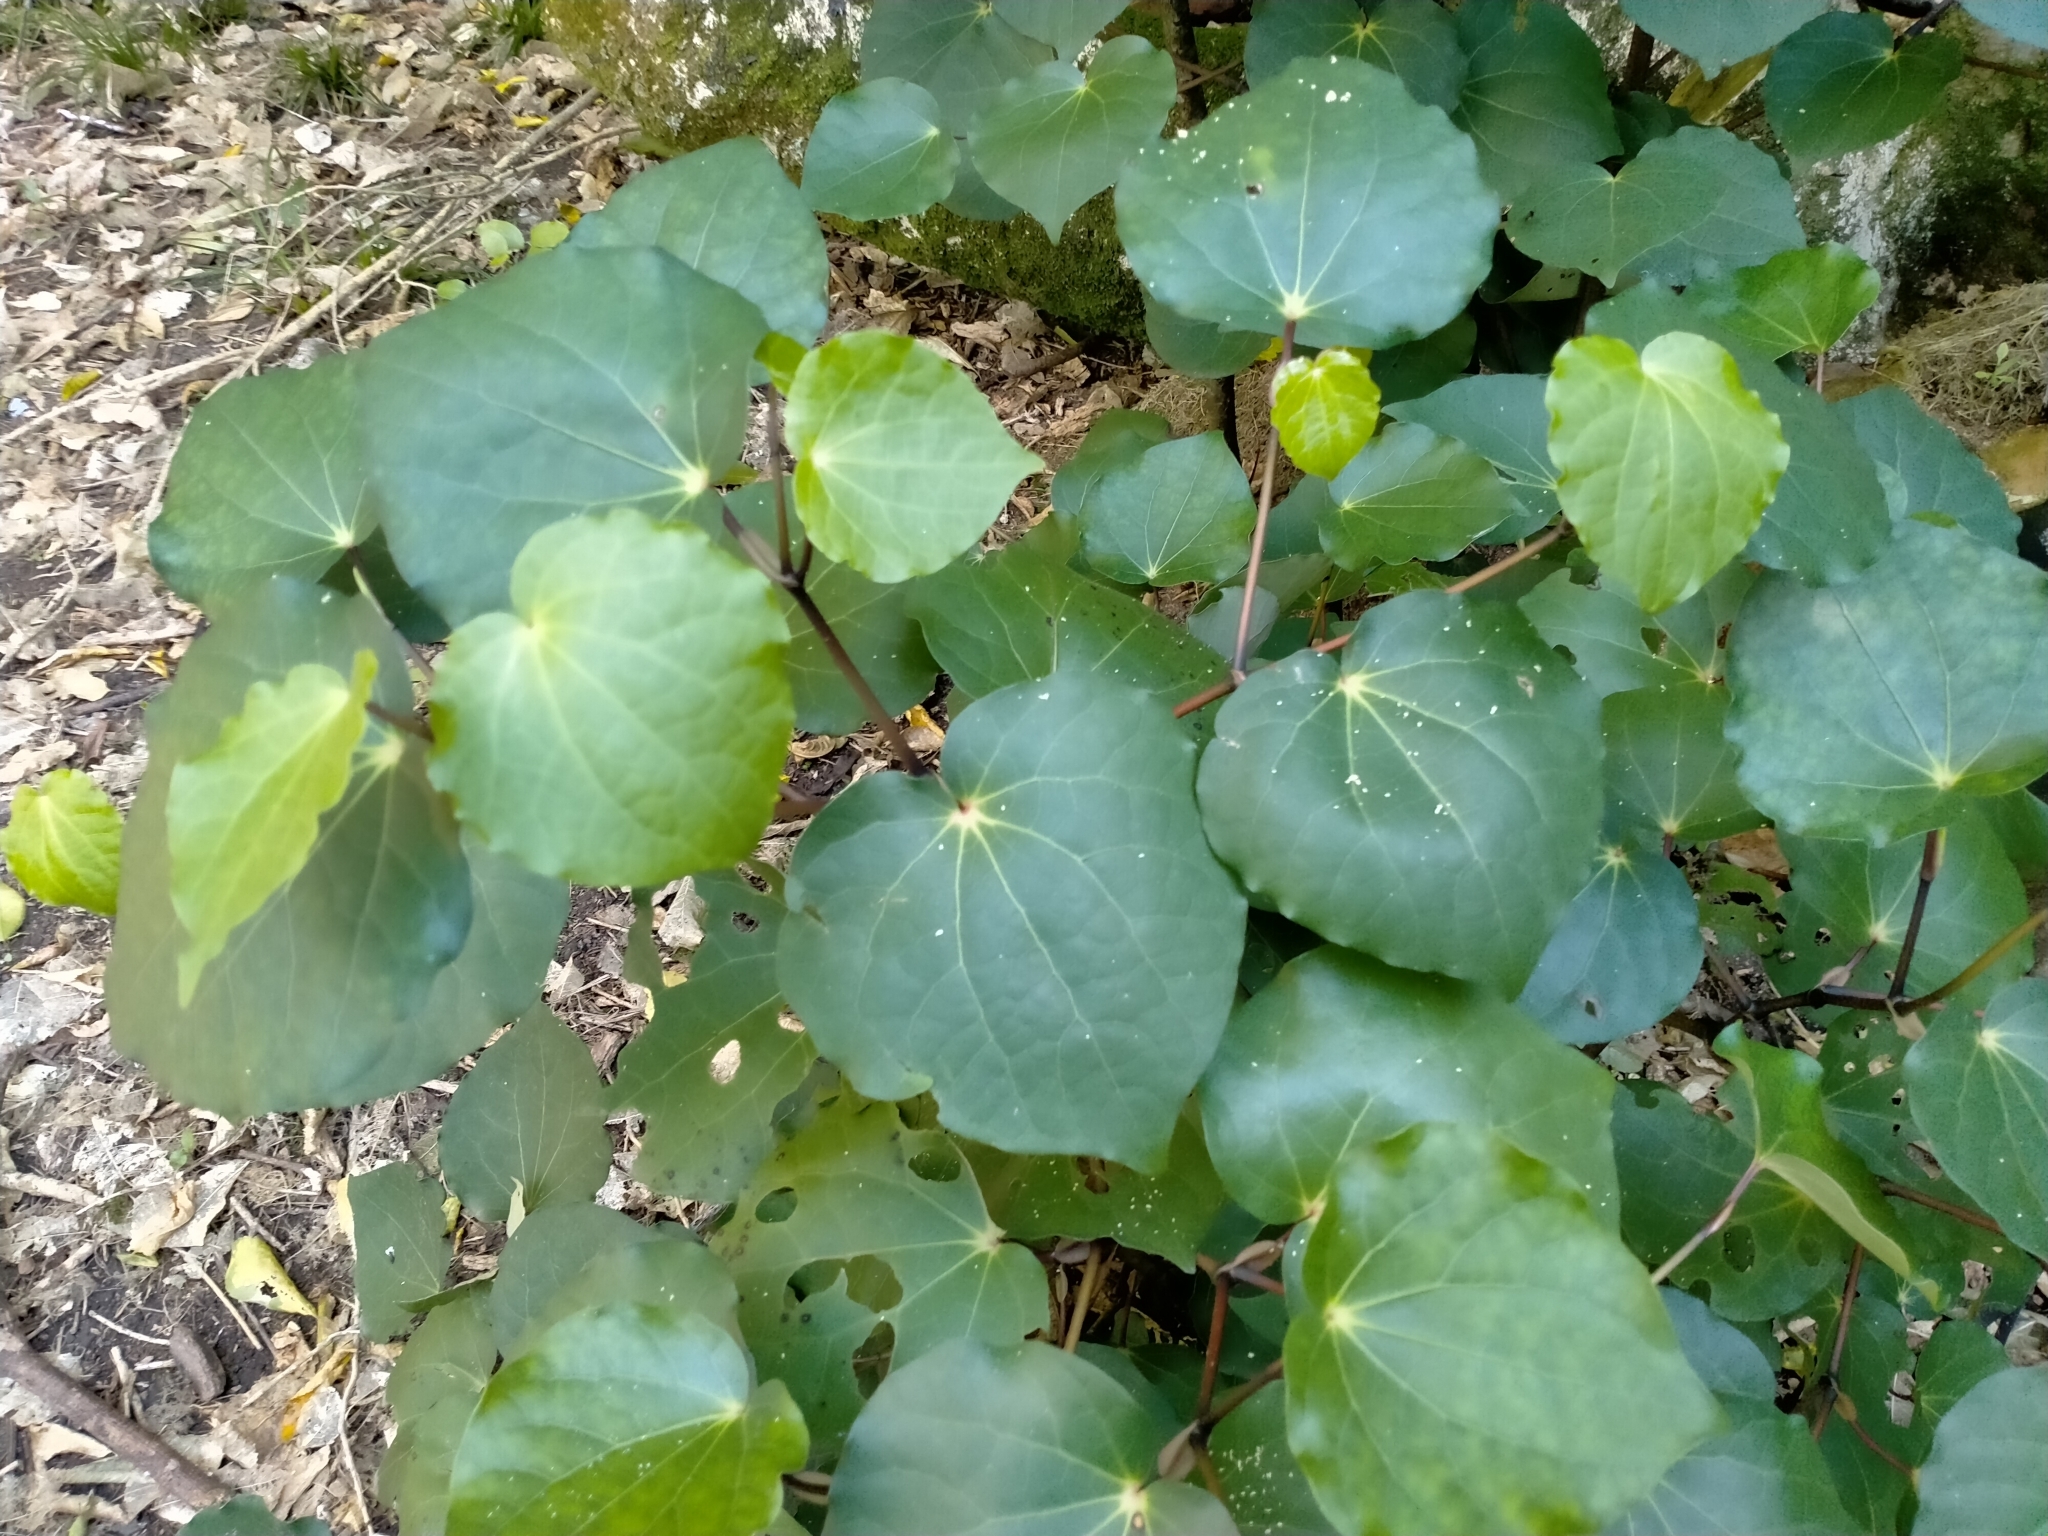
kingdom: Plantae
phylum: Tracheophyta
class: Magnoliopsida
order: Piperales
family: Piperaceae
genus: Macropiper
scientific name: Macropiper excelsum
